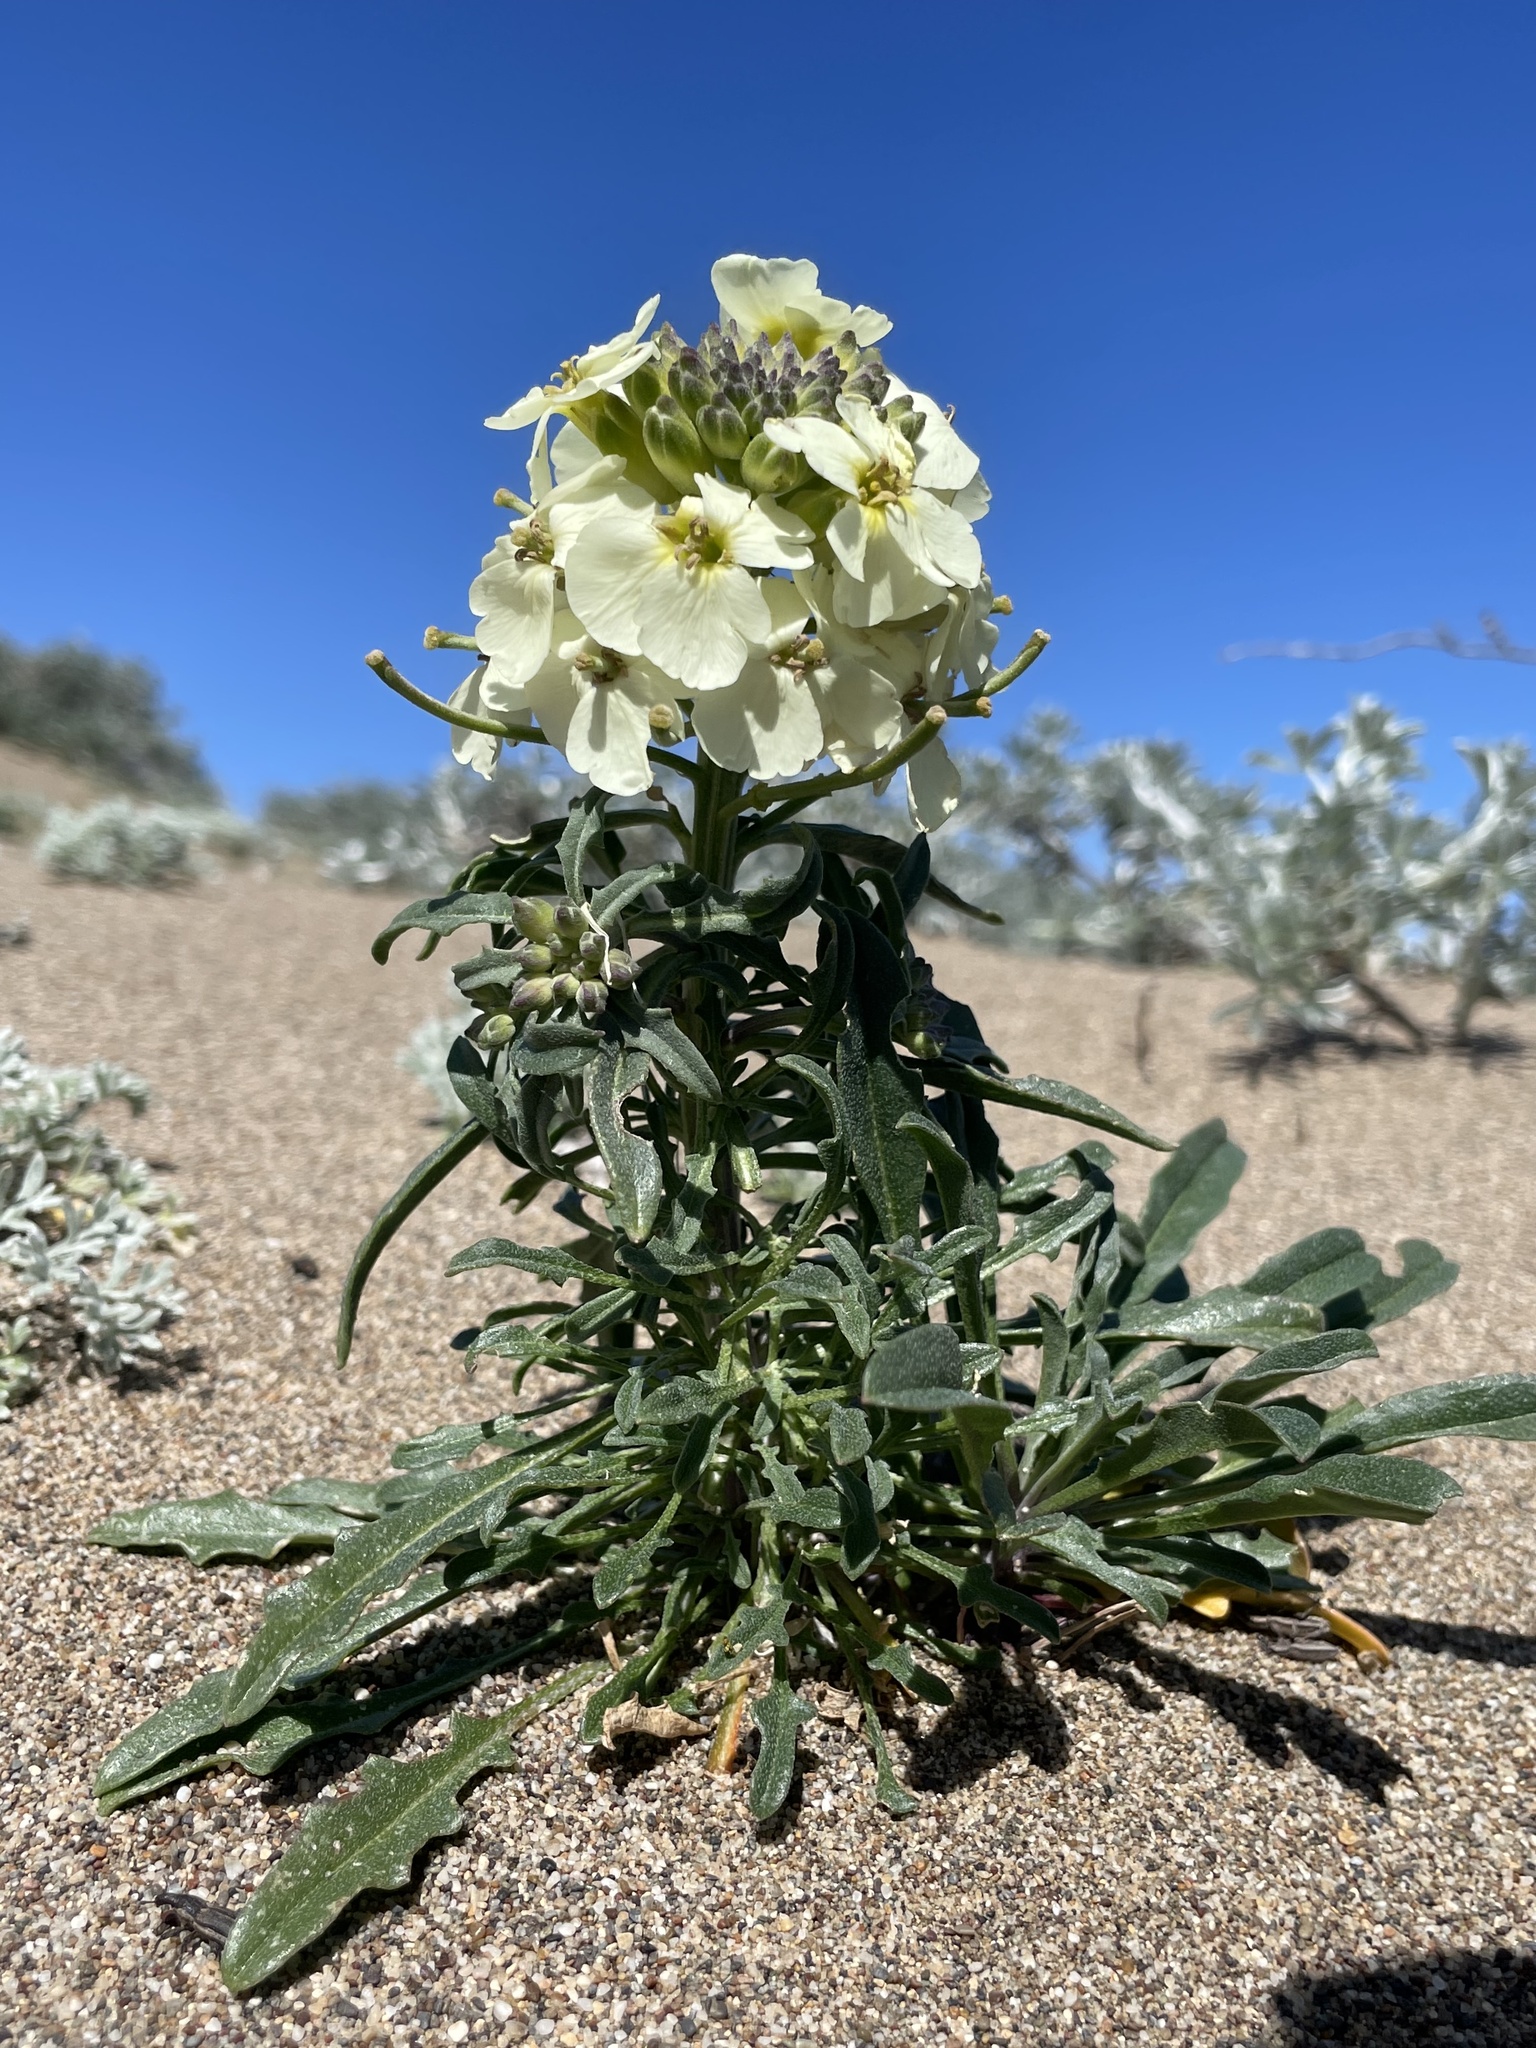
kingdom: Plantae
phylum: Tracheophyta
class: Magnoliopsida
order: Brassicales
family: Brassicaceae
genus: Erysimum
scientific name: Erysimum concinnum
